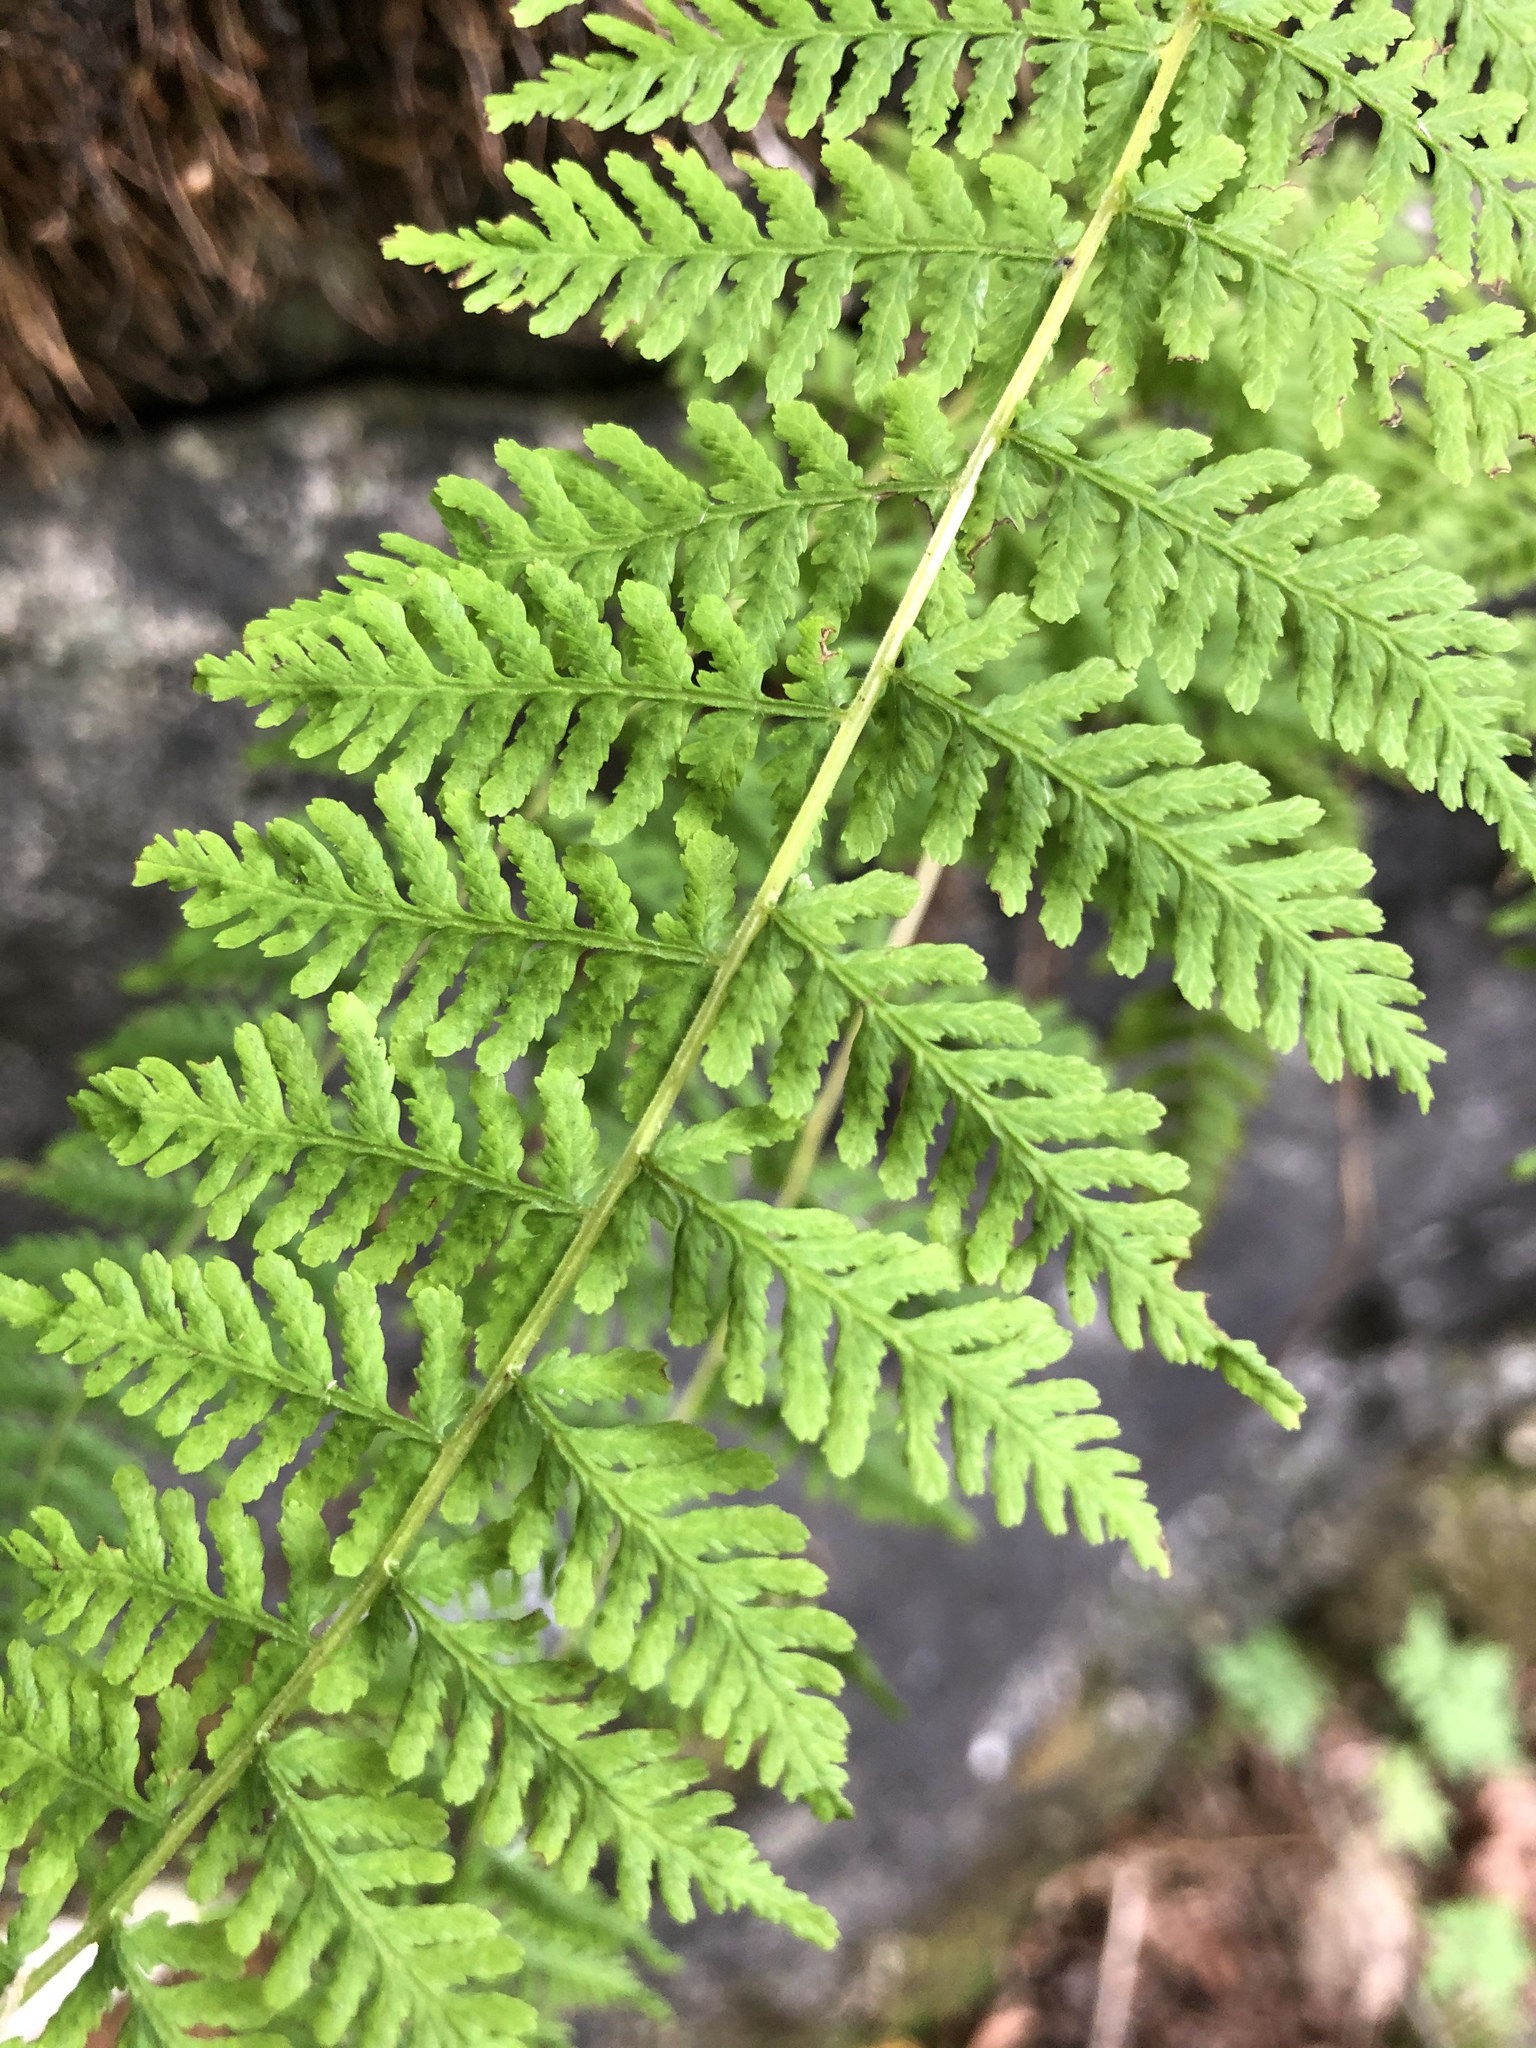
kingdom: Plantae
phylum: Tracheophyta
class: Polypodiopsida
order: Polypodiales
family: Cystopteridaceae
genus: Cystopteris
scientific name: Cystopteris bulbifera
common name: Bulblet bladder fern
